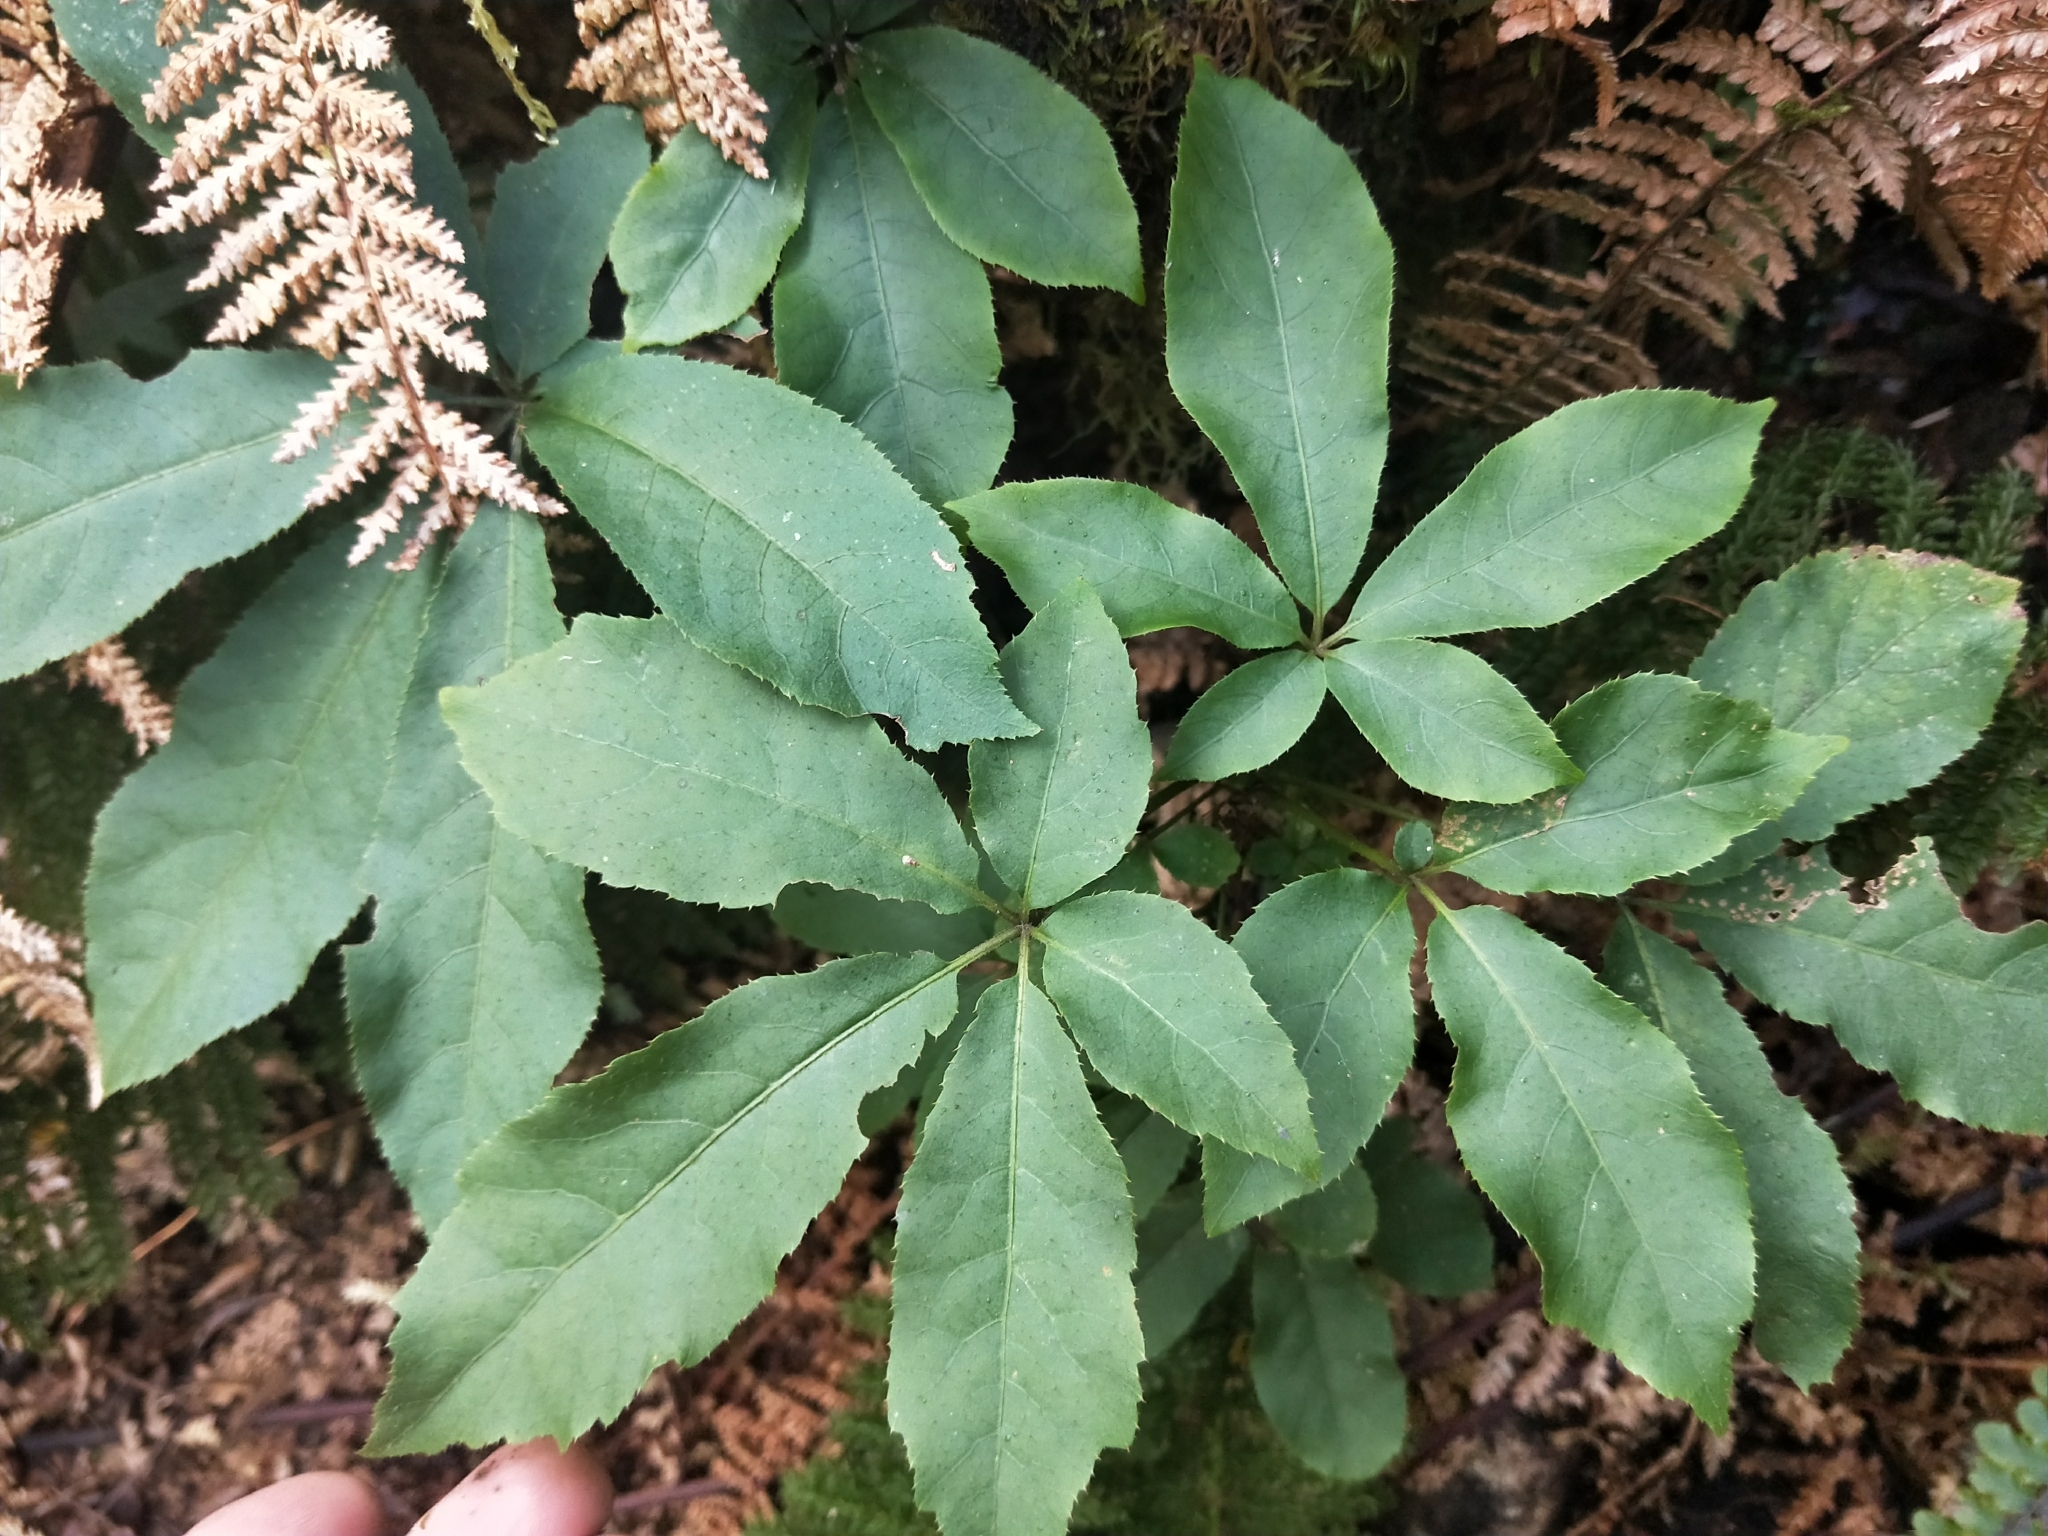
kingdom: Plantae
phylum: Tracheophyta
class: Magnoliopsida
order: Apiales
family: Araliaceae
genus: Schefflera
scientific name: Schefflera digitata
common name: Pate
